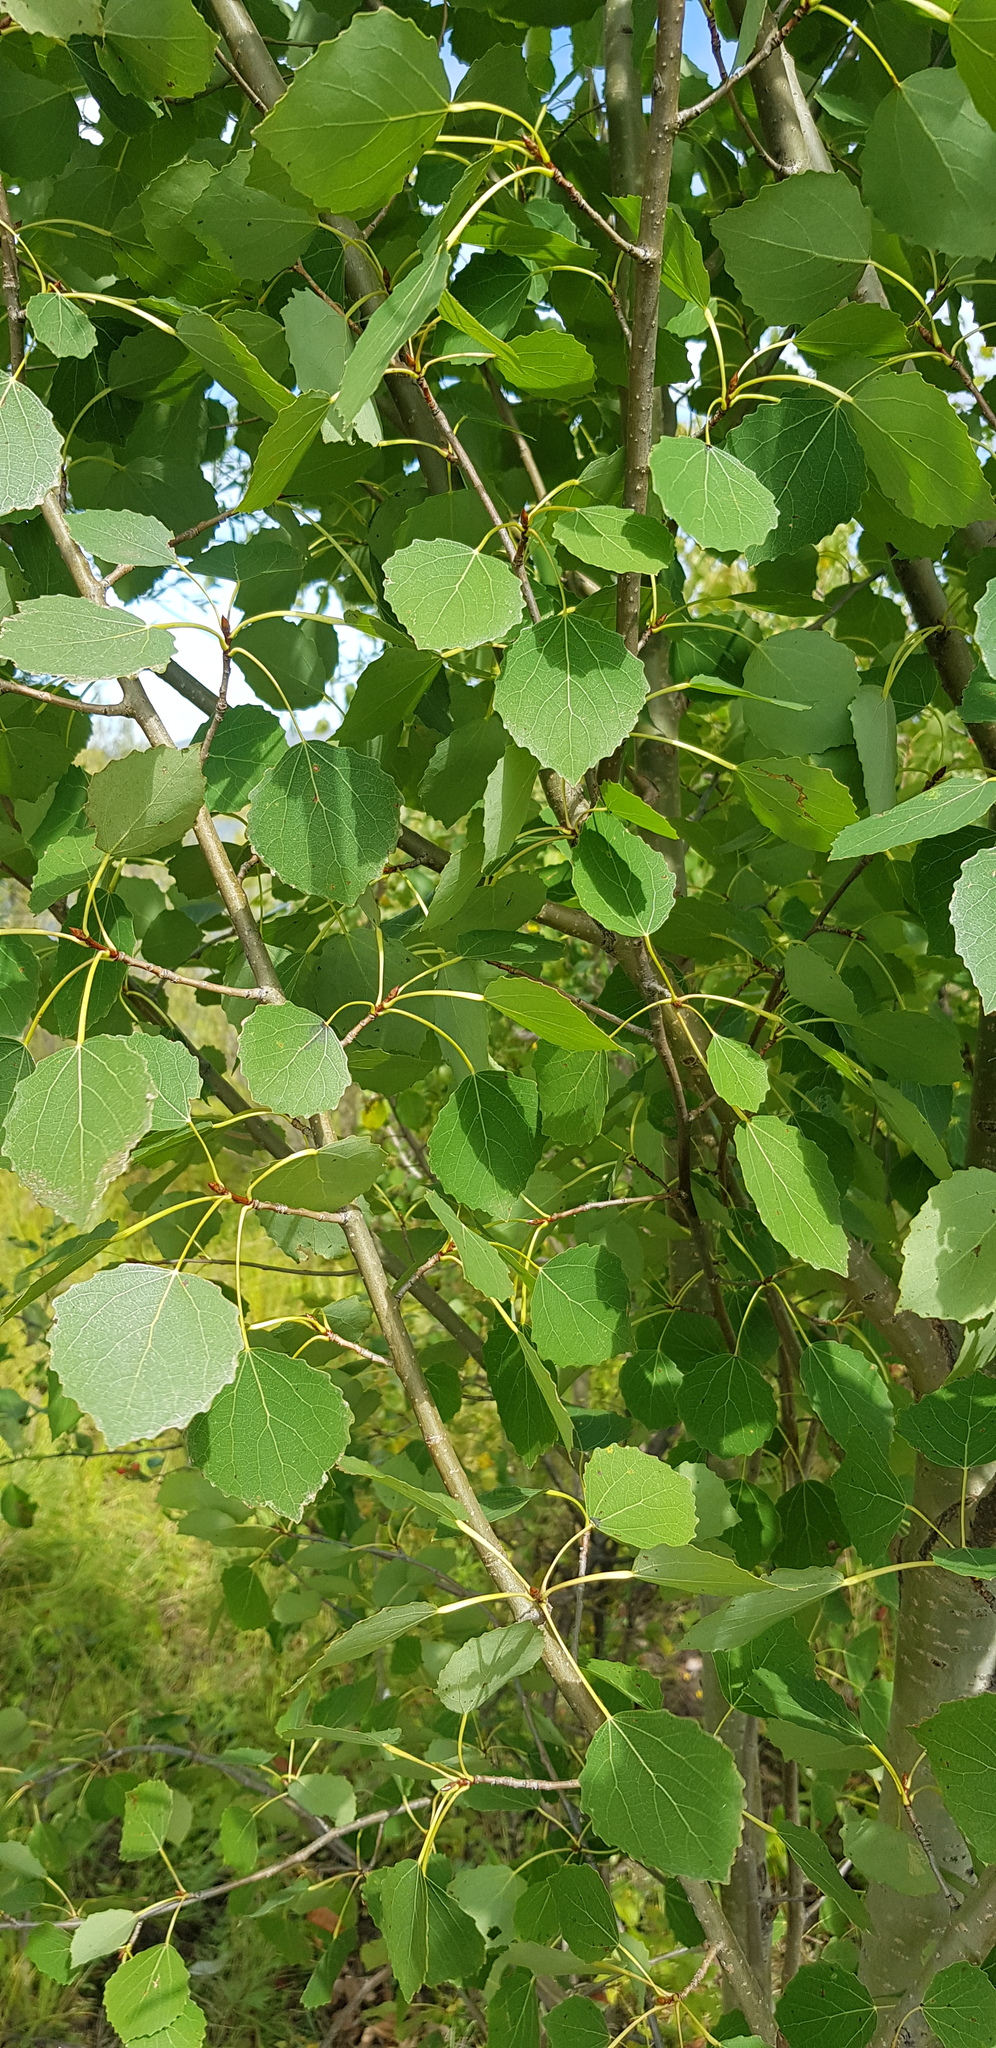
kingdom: Plantae
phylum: Tracheophyta
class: Magnoliopsida
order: Malpighiales
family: Salicaceae
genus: Populus
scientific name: Populus tremula
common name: European aspen
